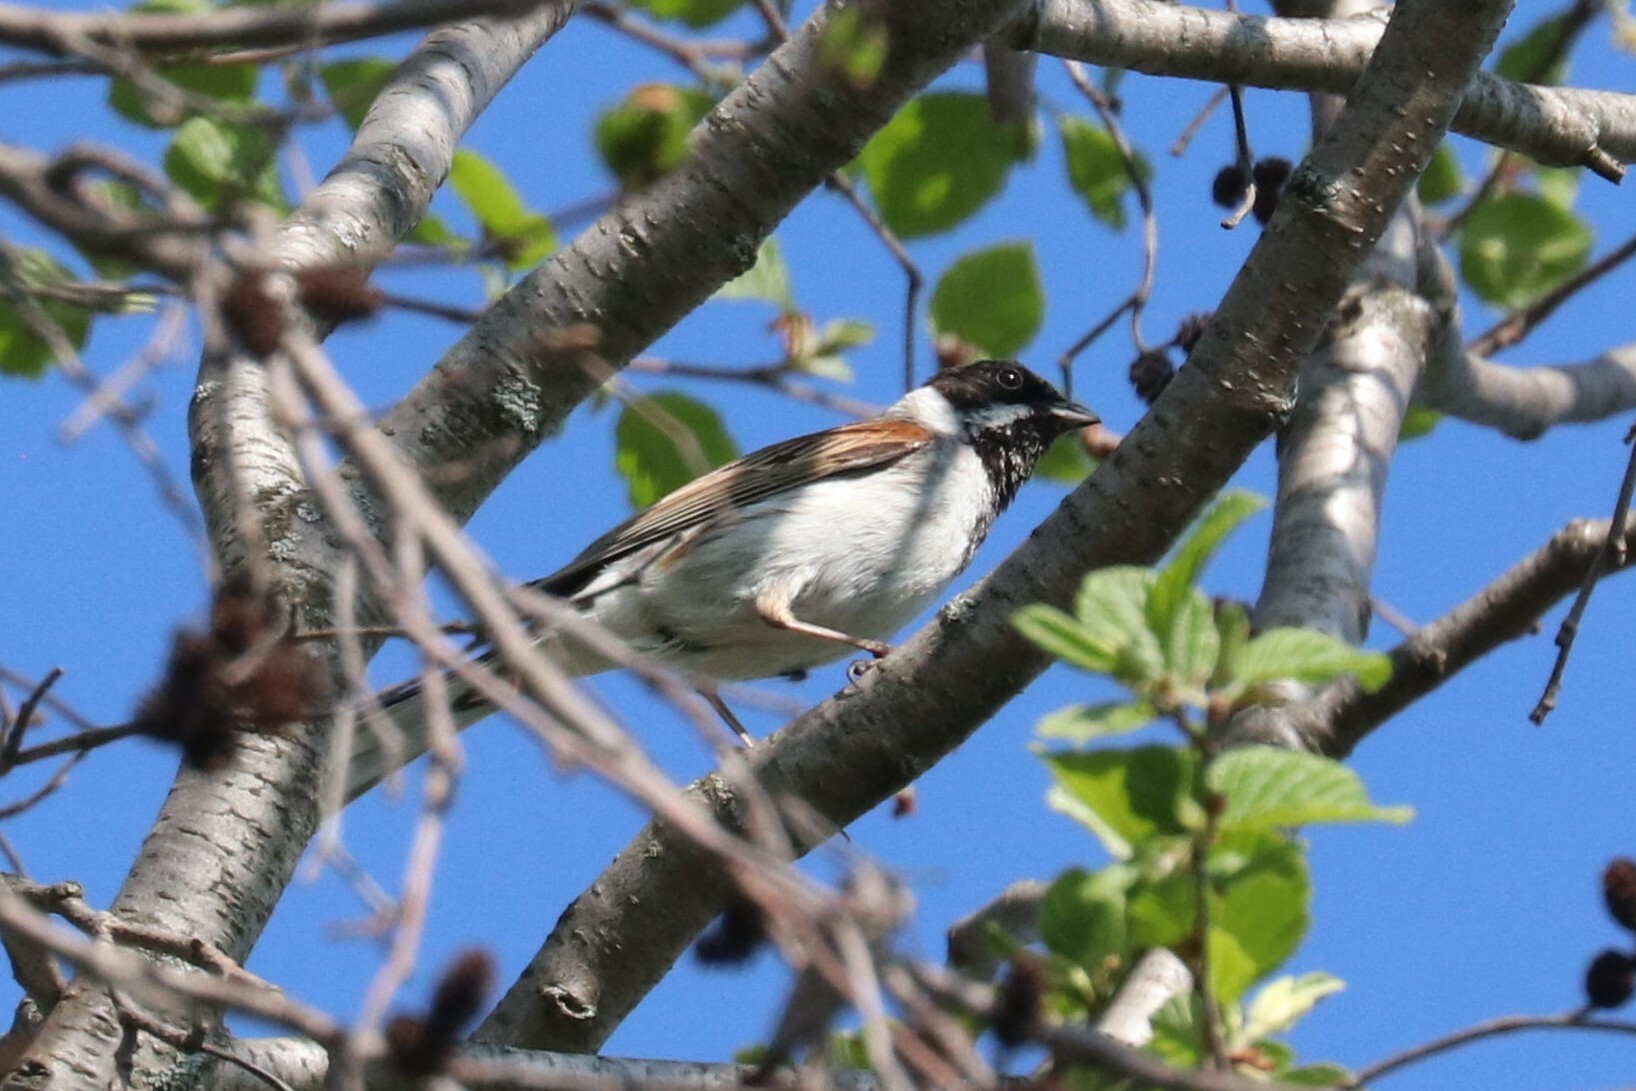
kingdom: Animalia
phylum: Chordata
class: Aves
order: Passeriformes
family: Emberizidae
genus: Emberiza
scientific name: Emberiza schoeniclus
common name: Reed bunting
